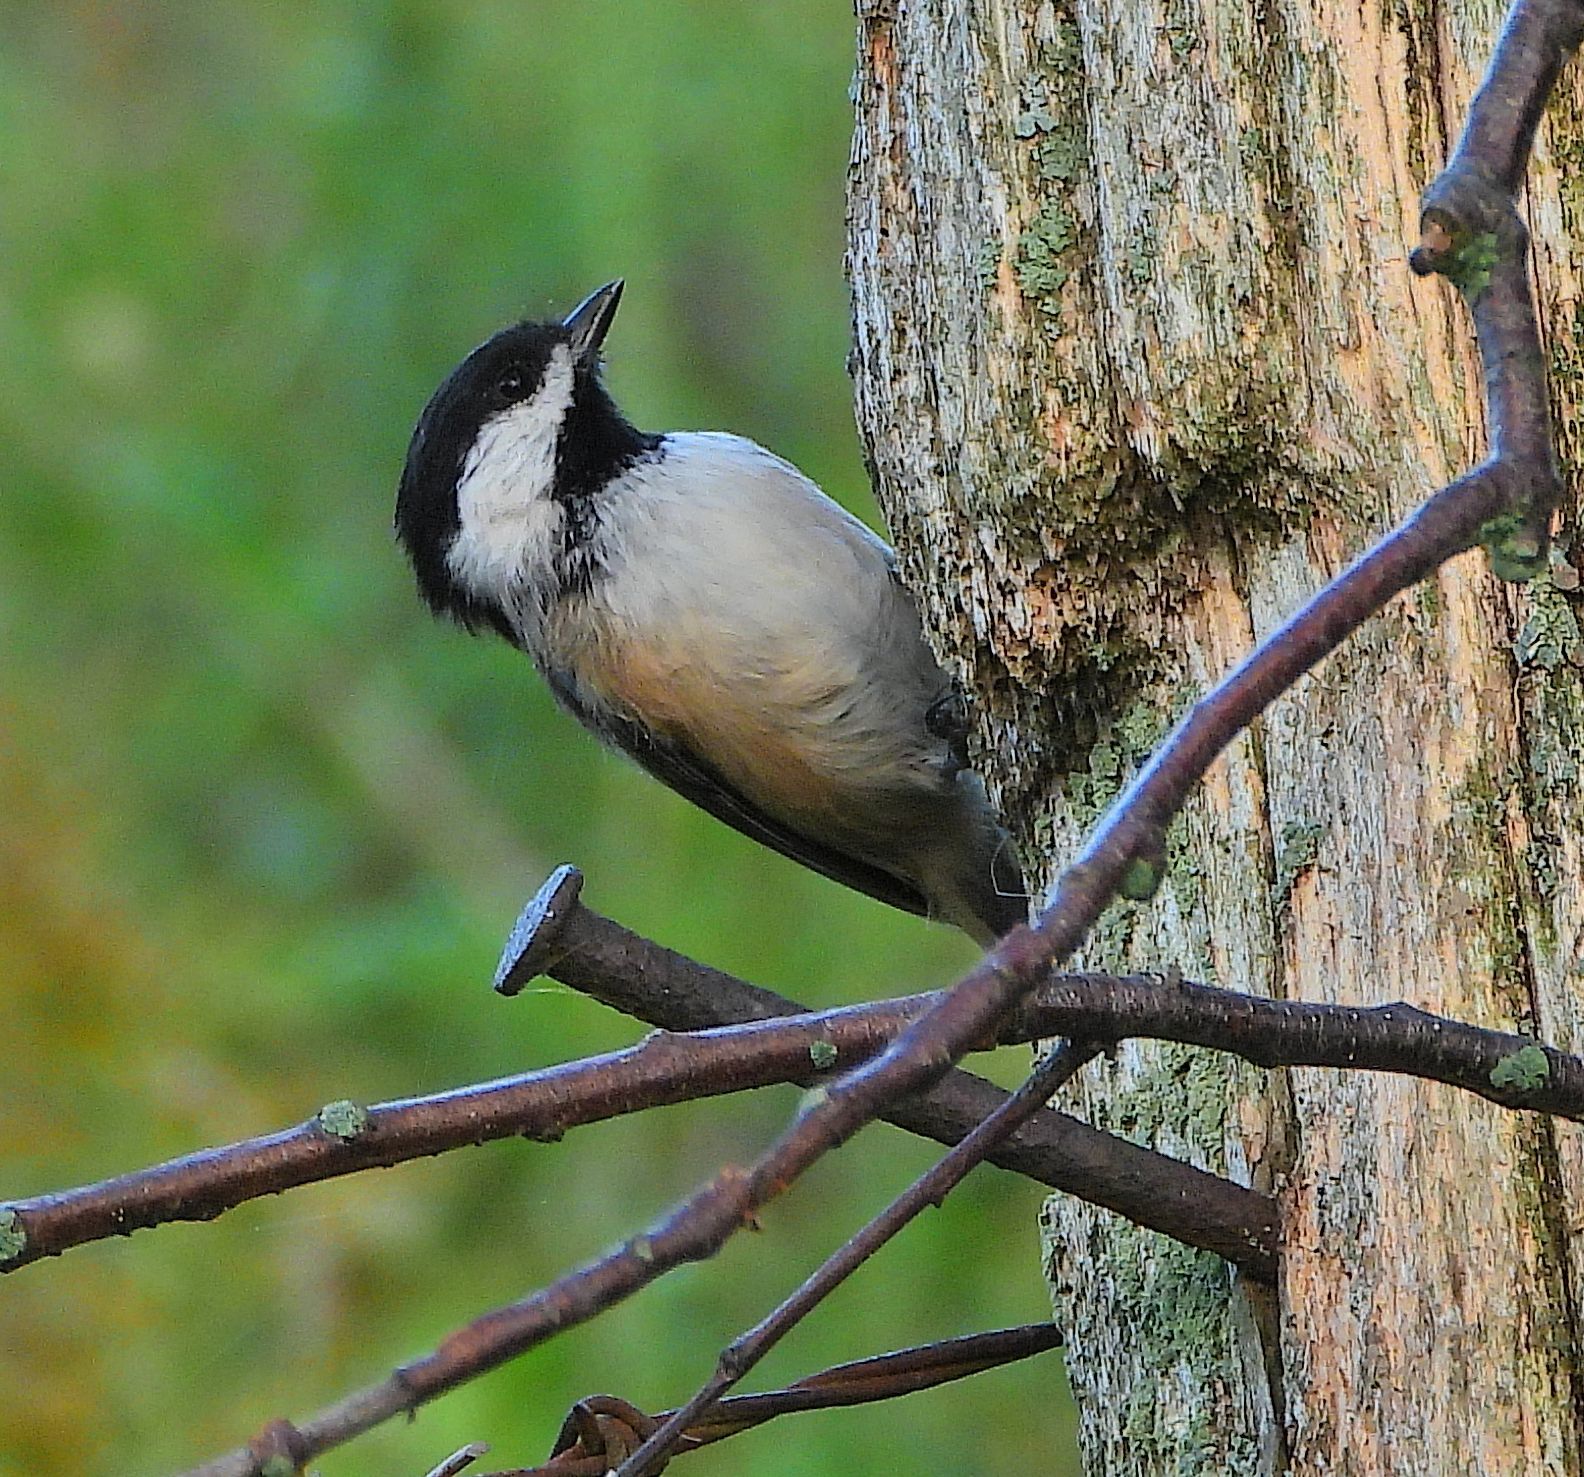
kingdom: Animalia
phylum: Chordata
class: Aves
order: Passeriformes
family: Paridae
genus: Poecile
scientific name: Poecile atricapillus
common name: Black-capped chickadee
